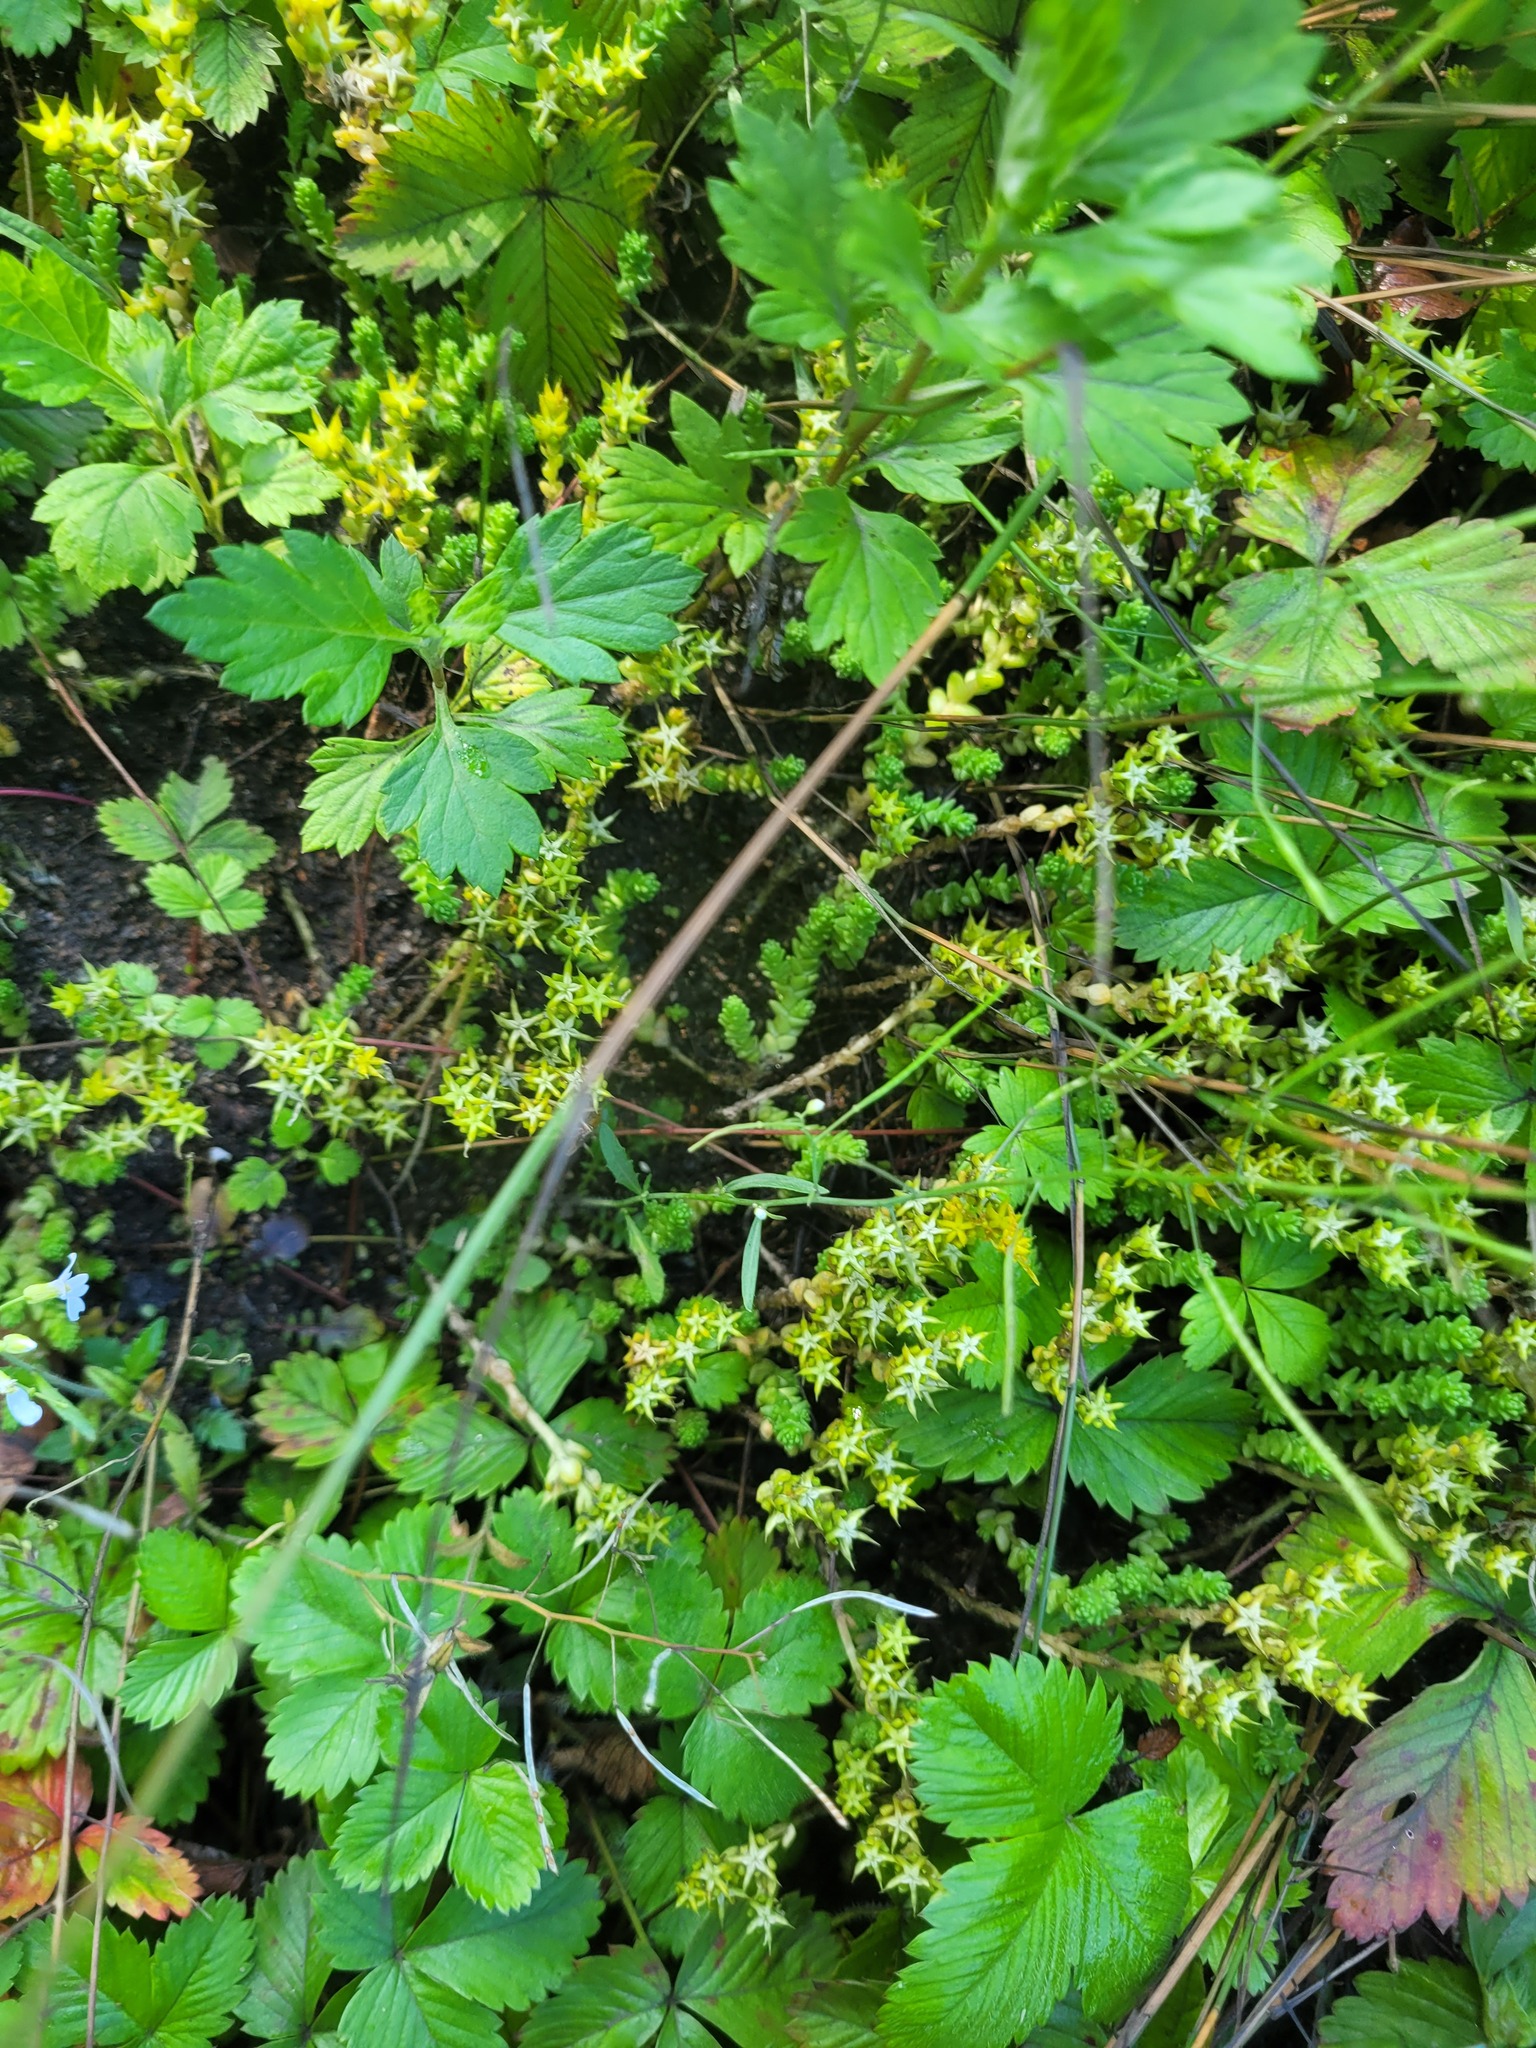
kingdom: Plantae
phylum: Tracheophyta
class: Magnoliopsida
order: Saxifragales
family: Crassulaceae
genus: Sedum
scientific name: Sedum acre
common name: Biting stonecrop
